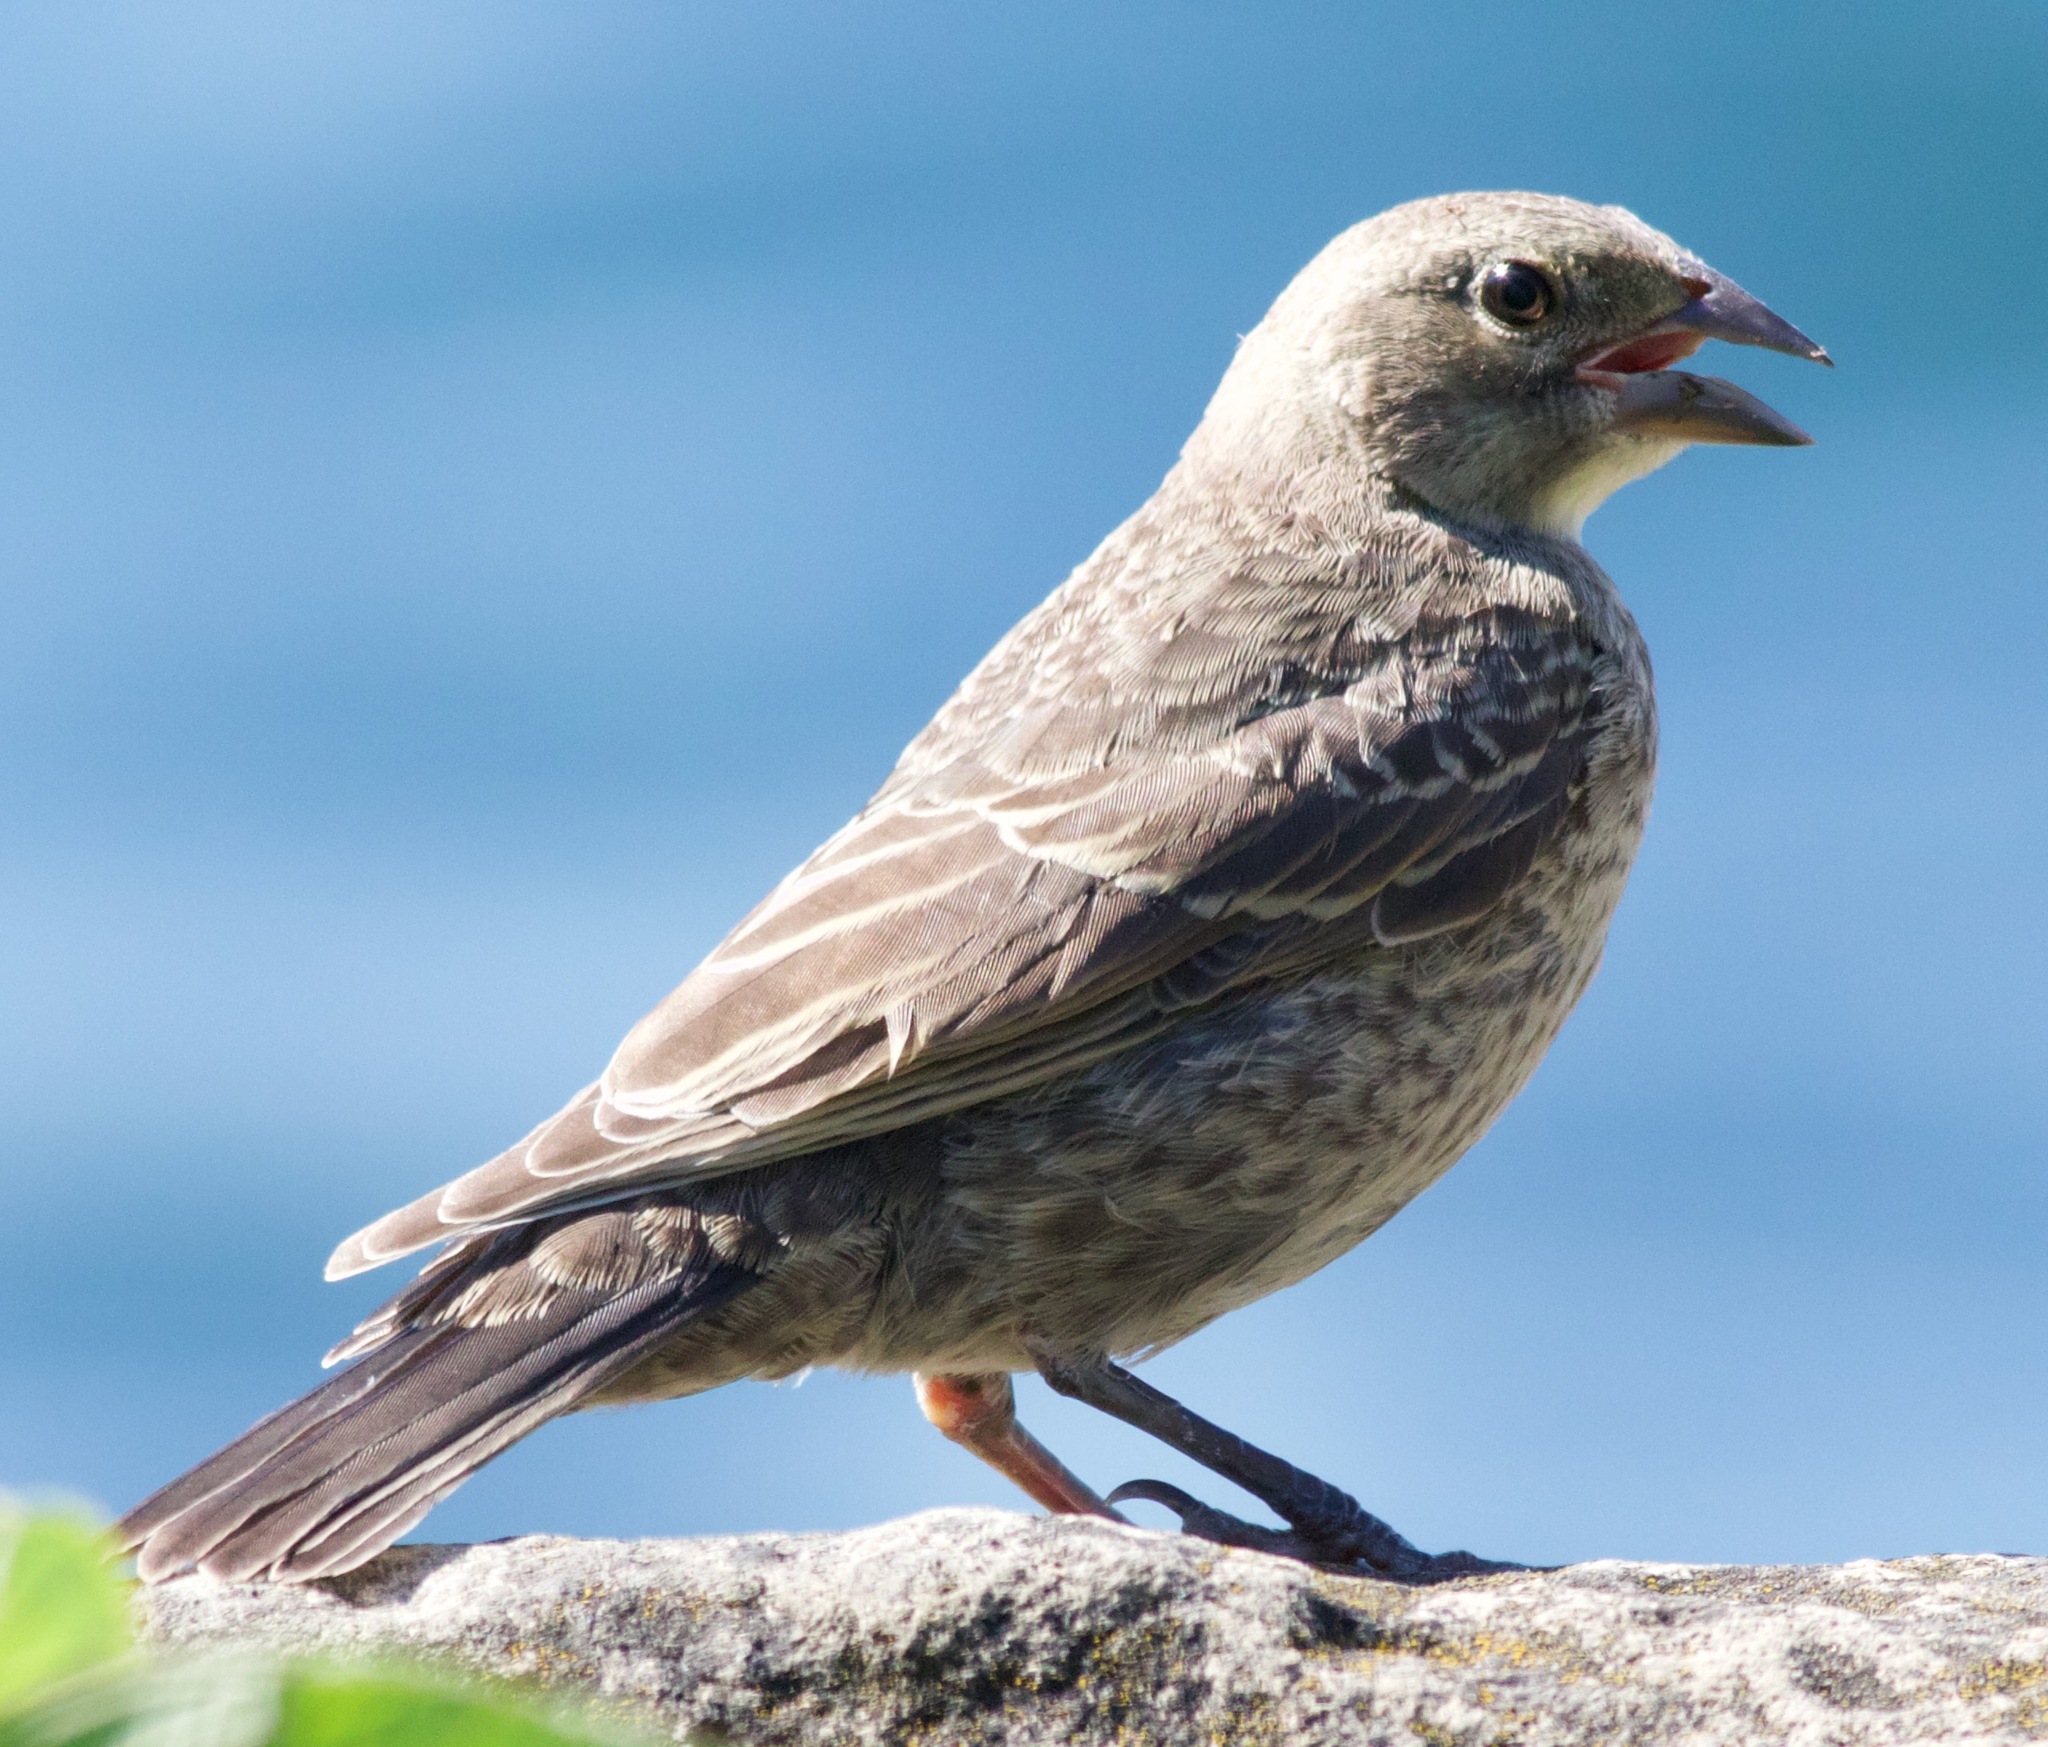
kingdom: Animalia
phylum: Chordata
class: Aves
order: Passeriformes
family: Icteridae
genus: Molothrus
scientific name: Molothrus ater
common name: Brown-headed cowbird
